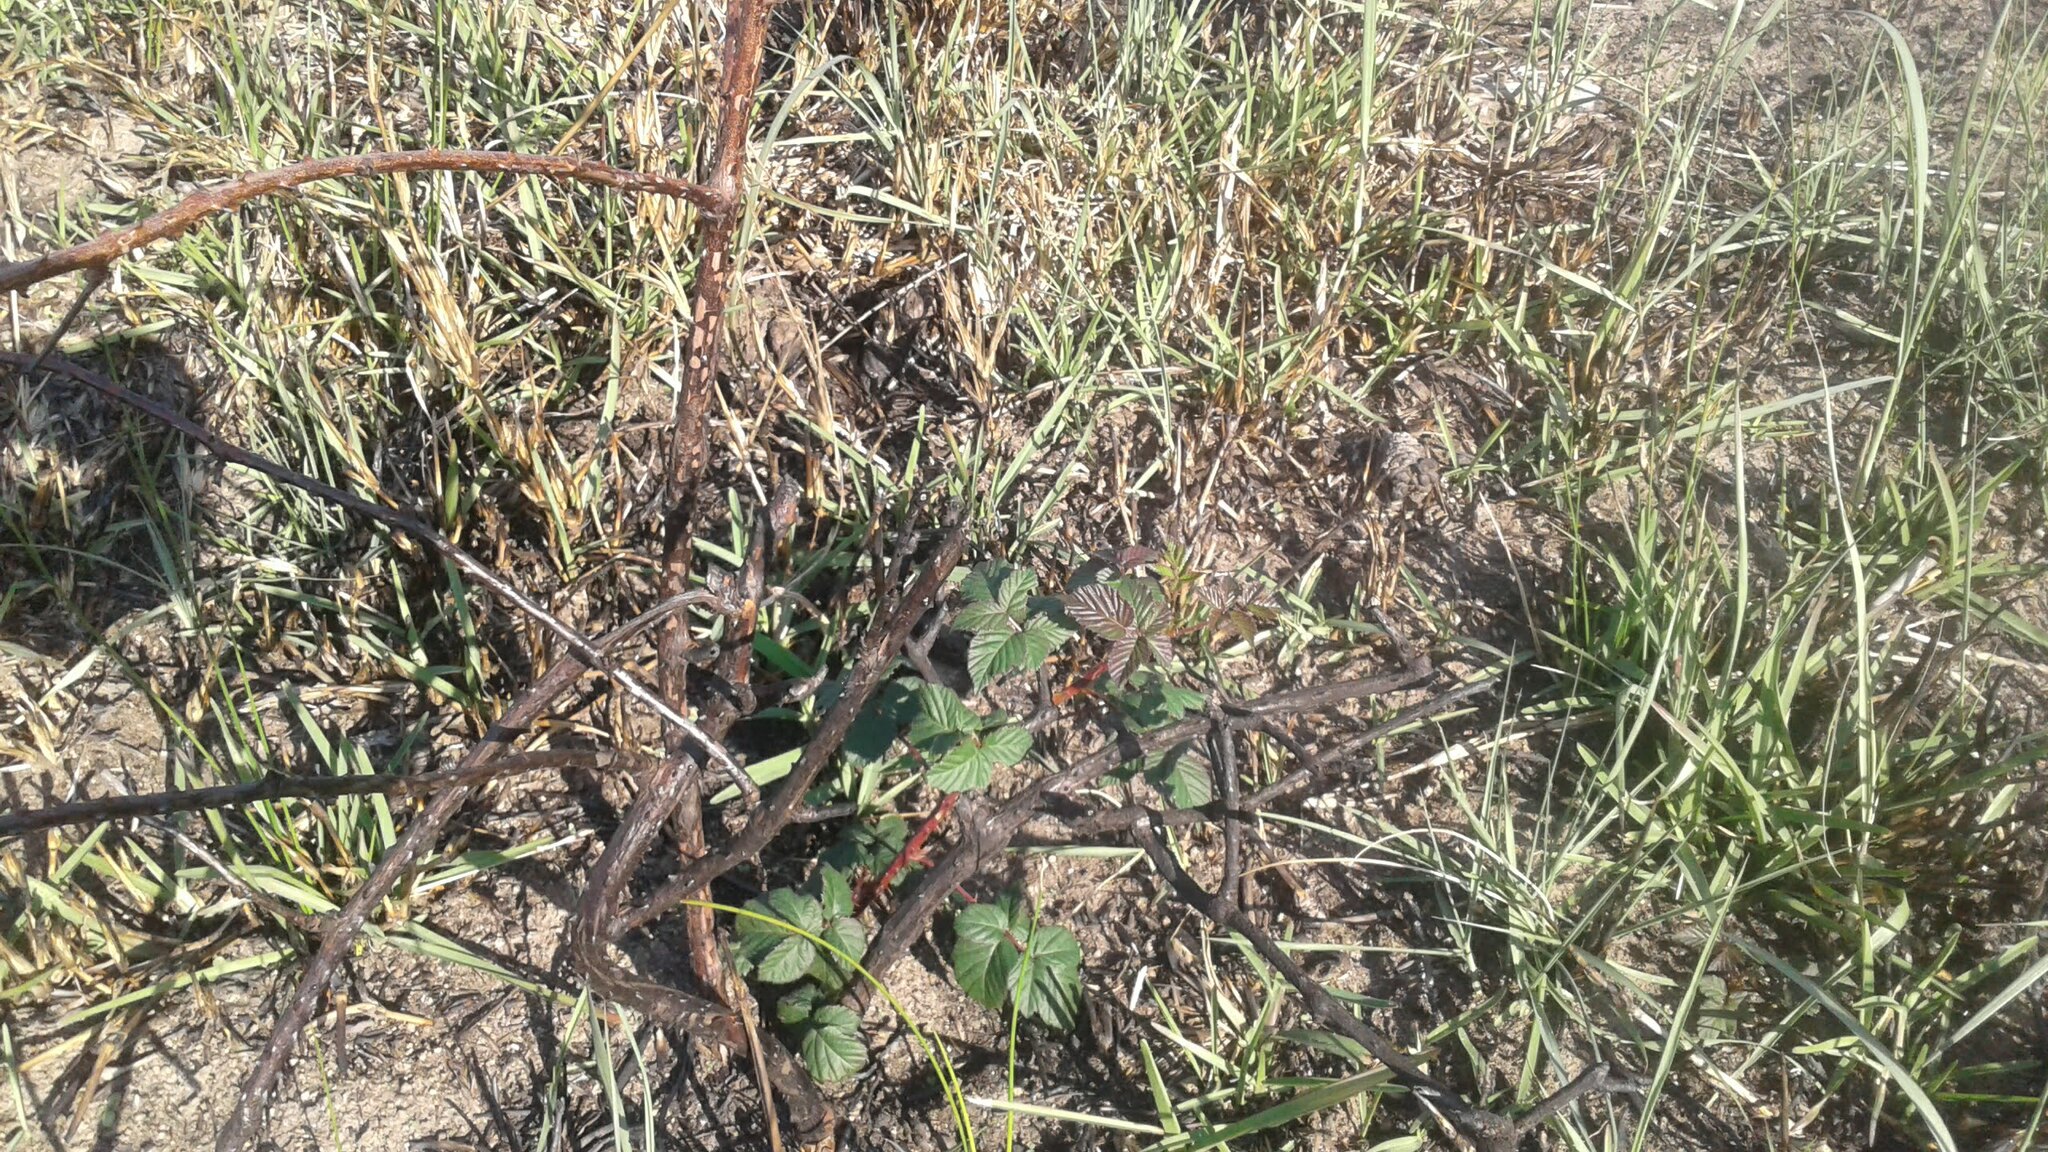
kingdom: Plantae
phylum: Tracheophyta
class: Magnoliopsida
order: Rosales
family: Rosaceae
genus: Rubus
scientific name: Rubus fultus
